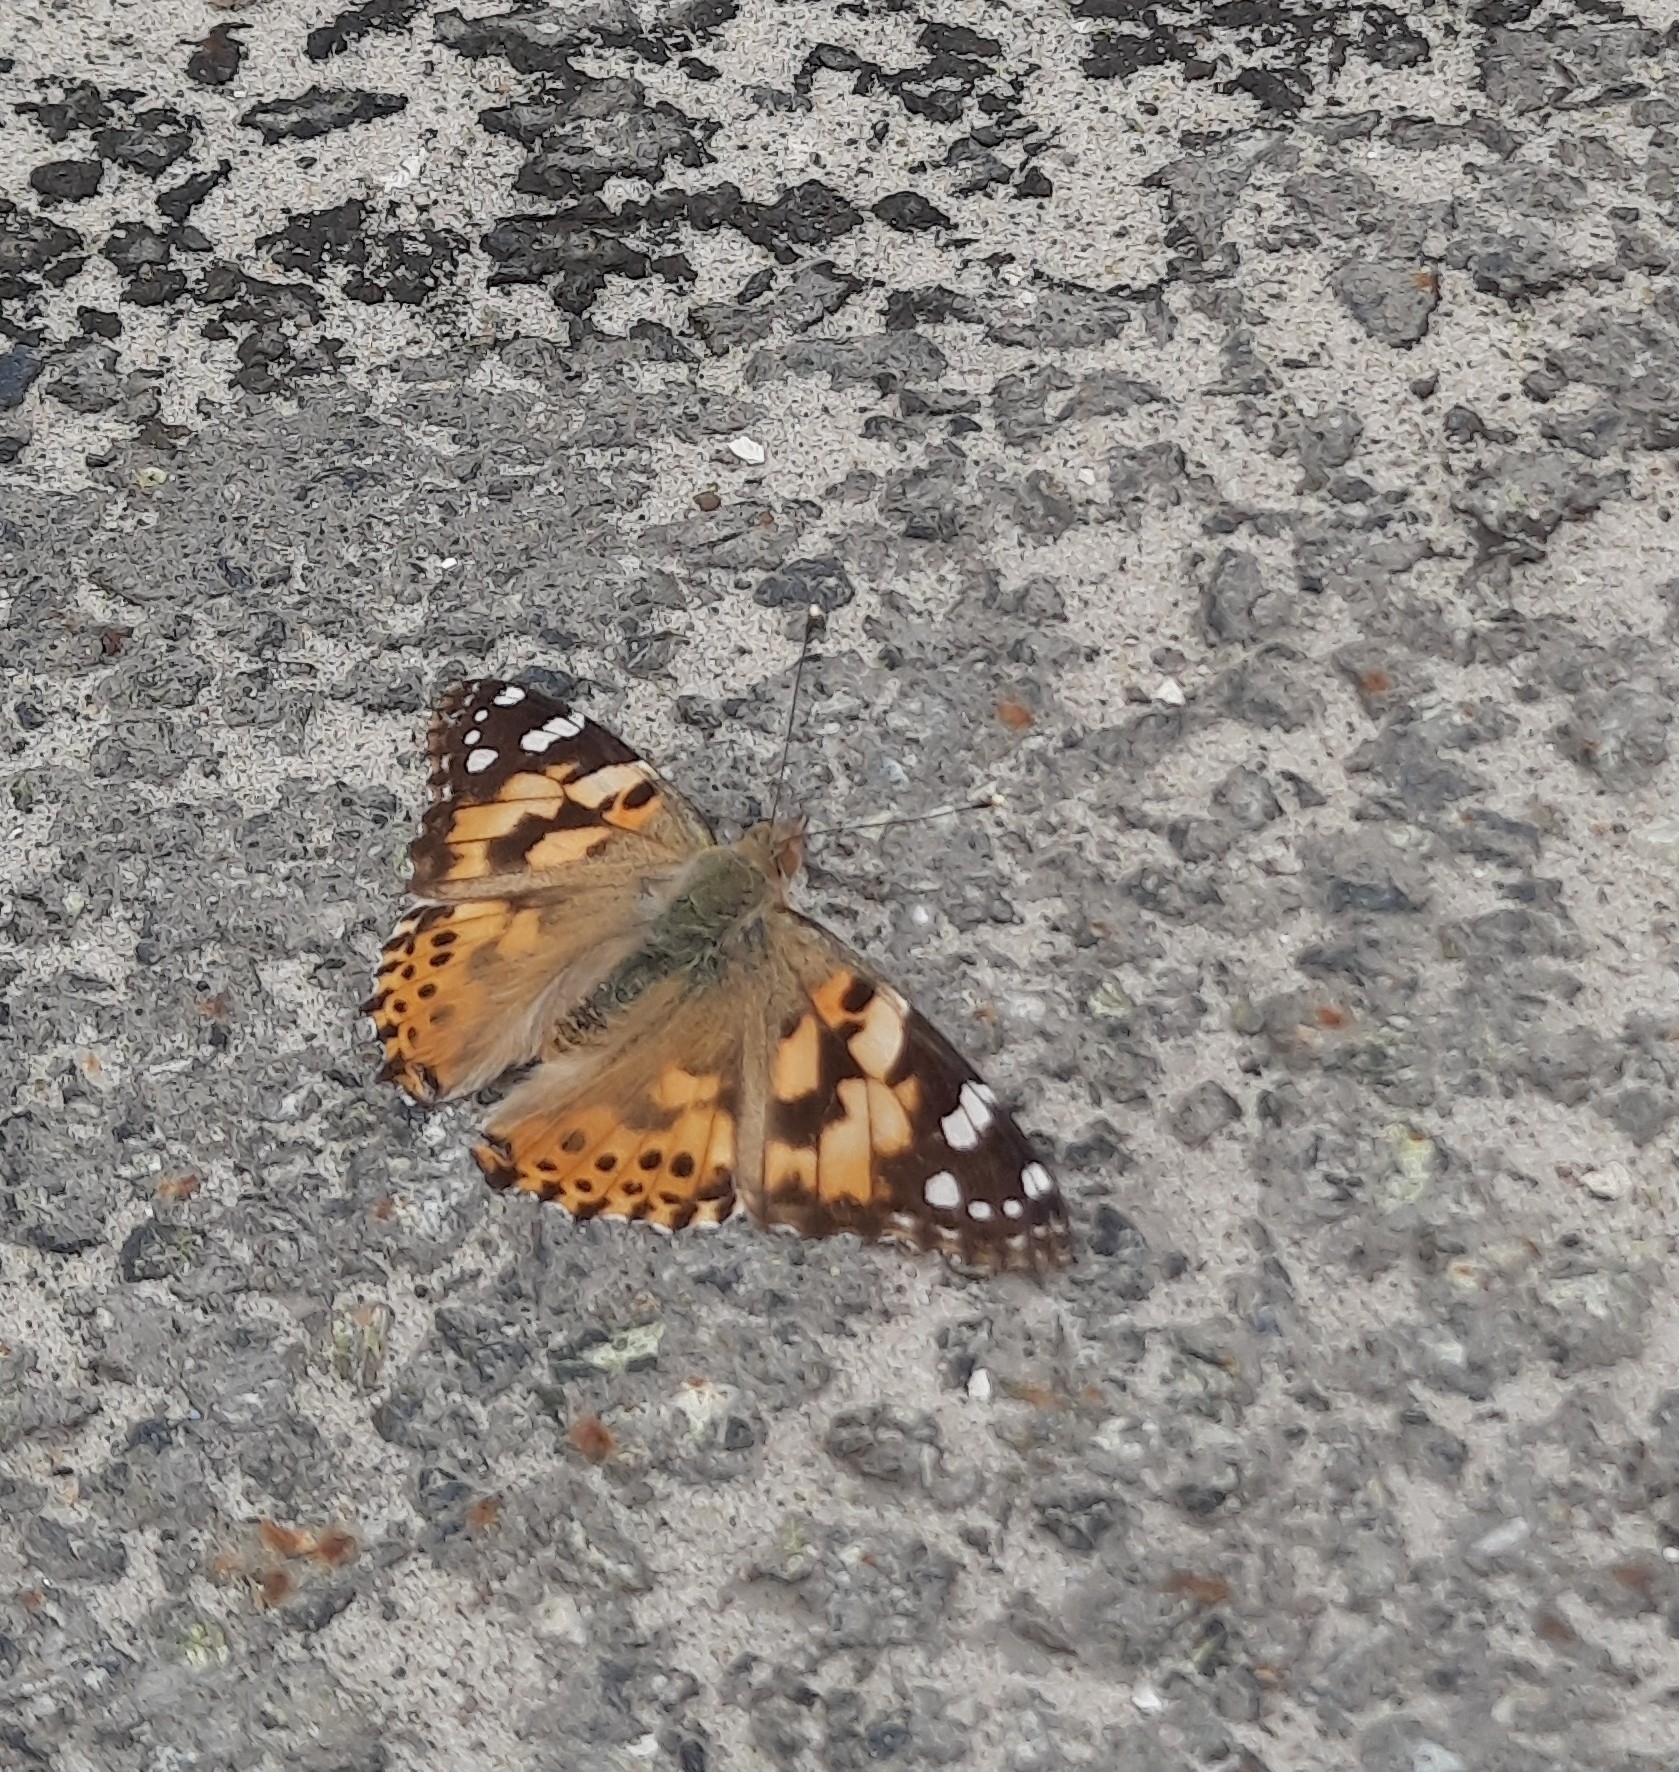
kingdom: Animalia
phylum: Arthropoda
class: Insecta
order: Lepidoptera
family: Nymphalidae
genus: Vanessa
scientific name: Vanessa cardui
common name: Painted lady
